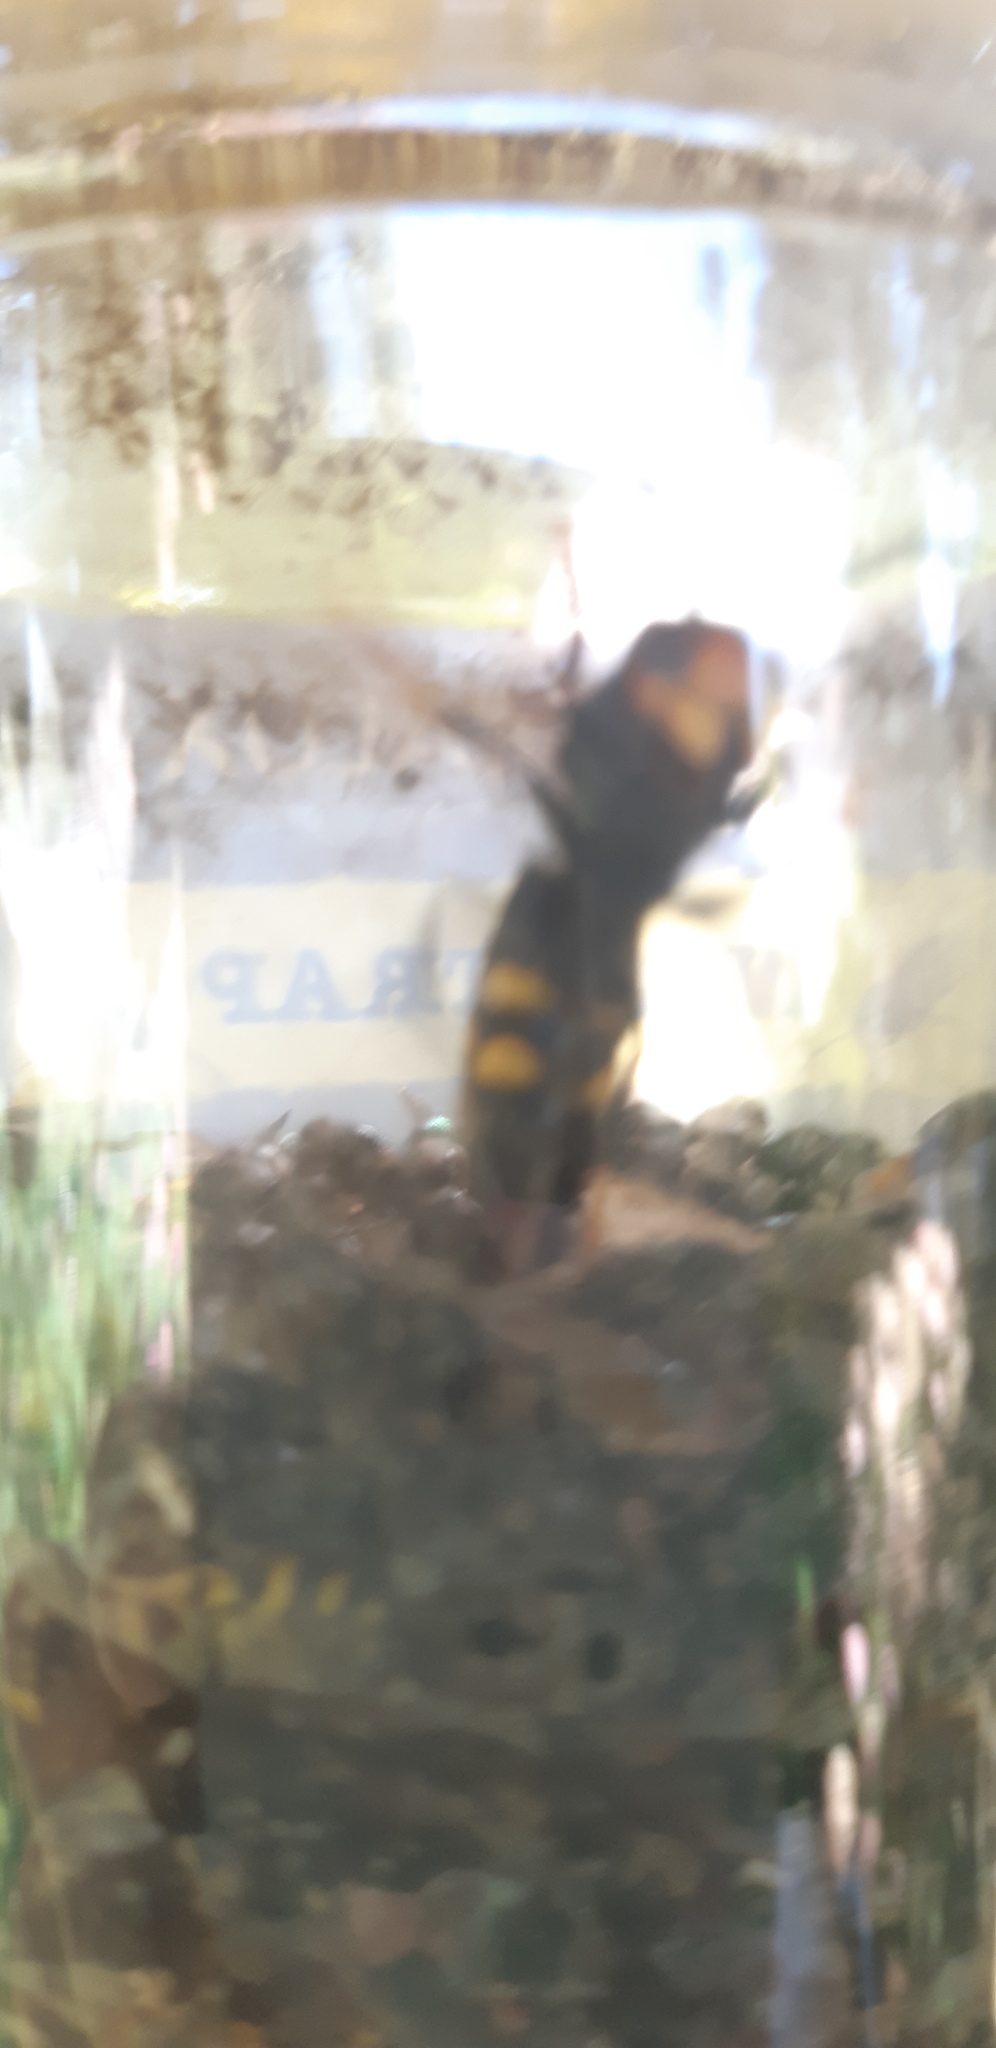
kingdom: Animalia
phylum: Arthropoda
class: Insecta
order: Hymenoptera
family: Vespidae
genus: Vespa
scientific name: Vespa velutina
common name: Asian hornet
